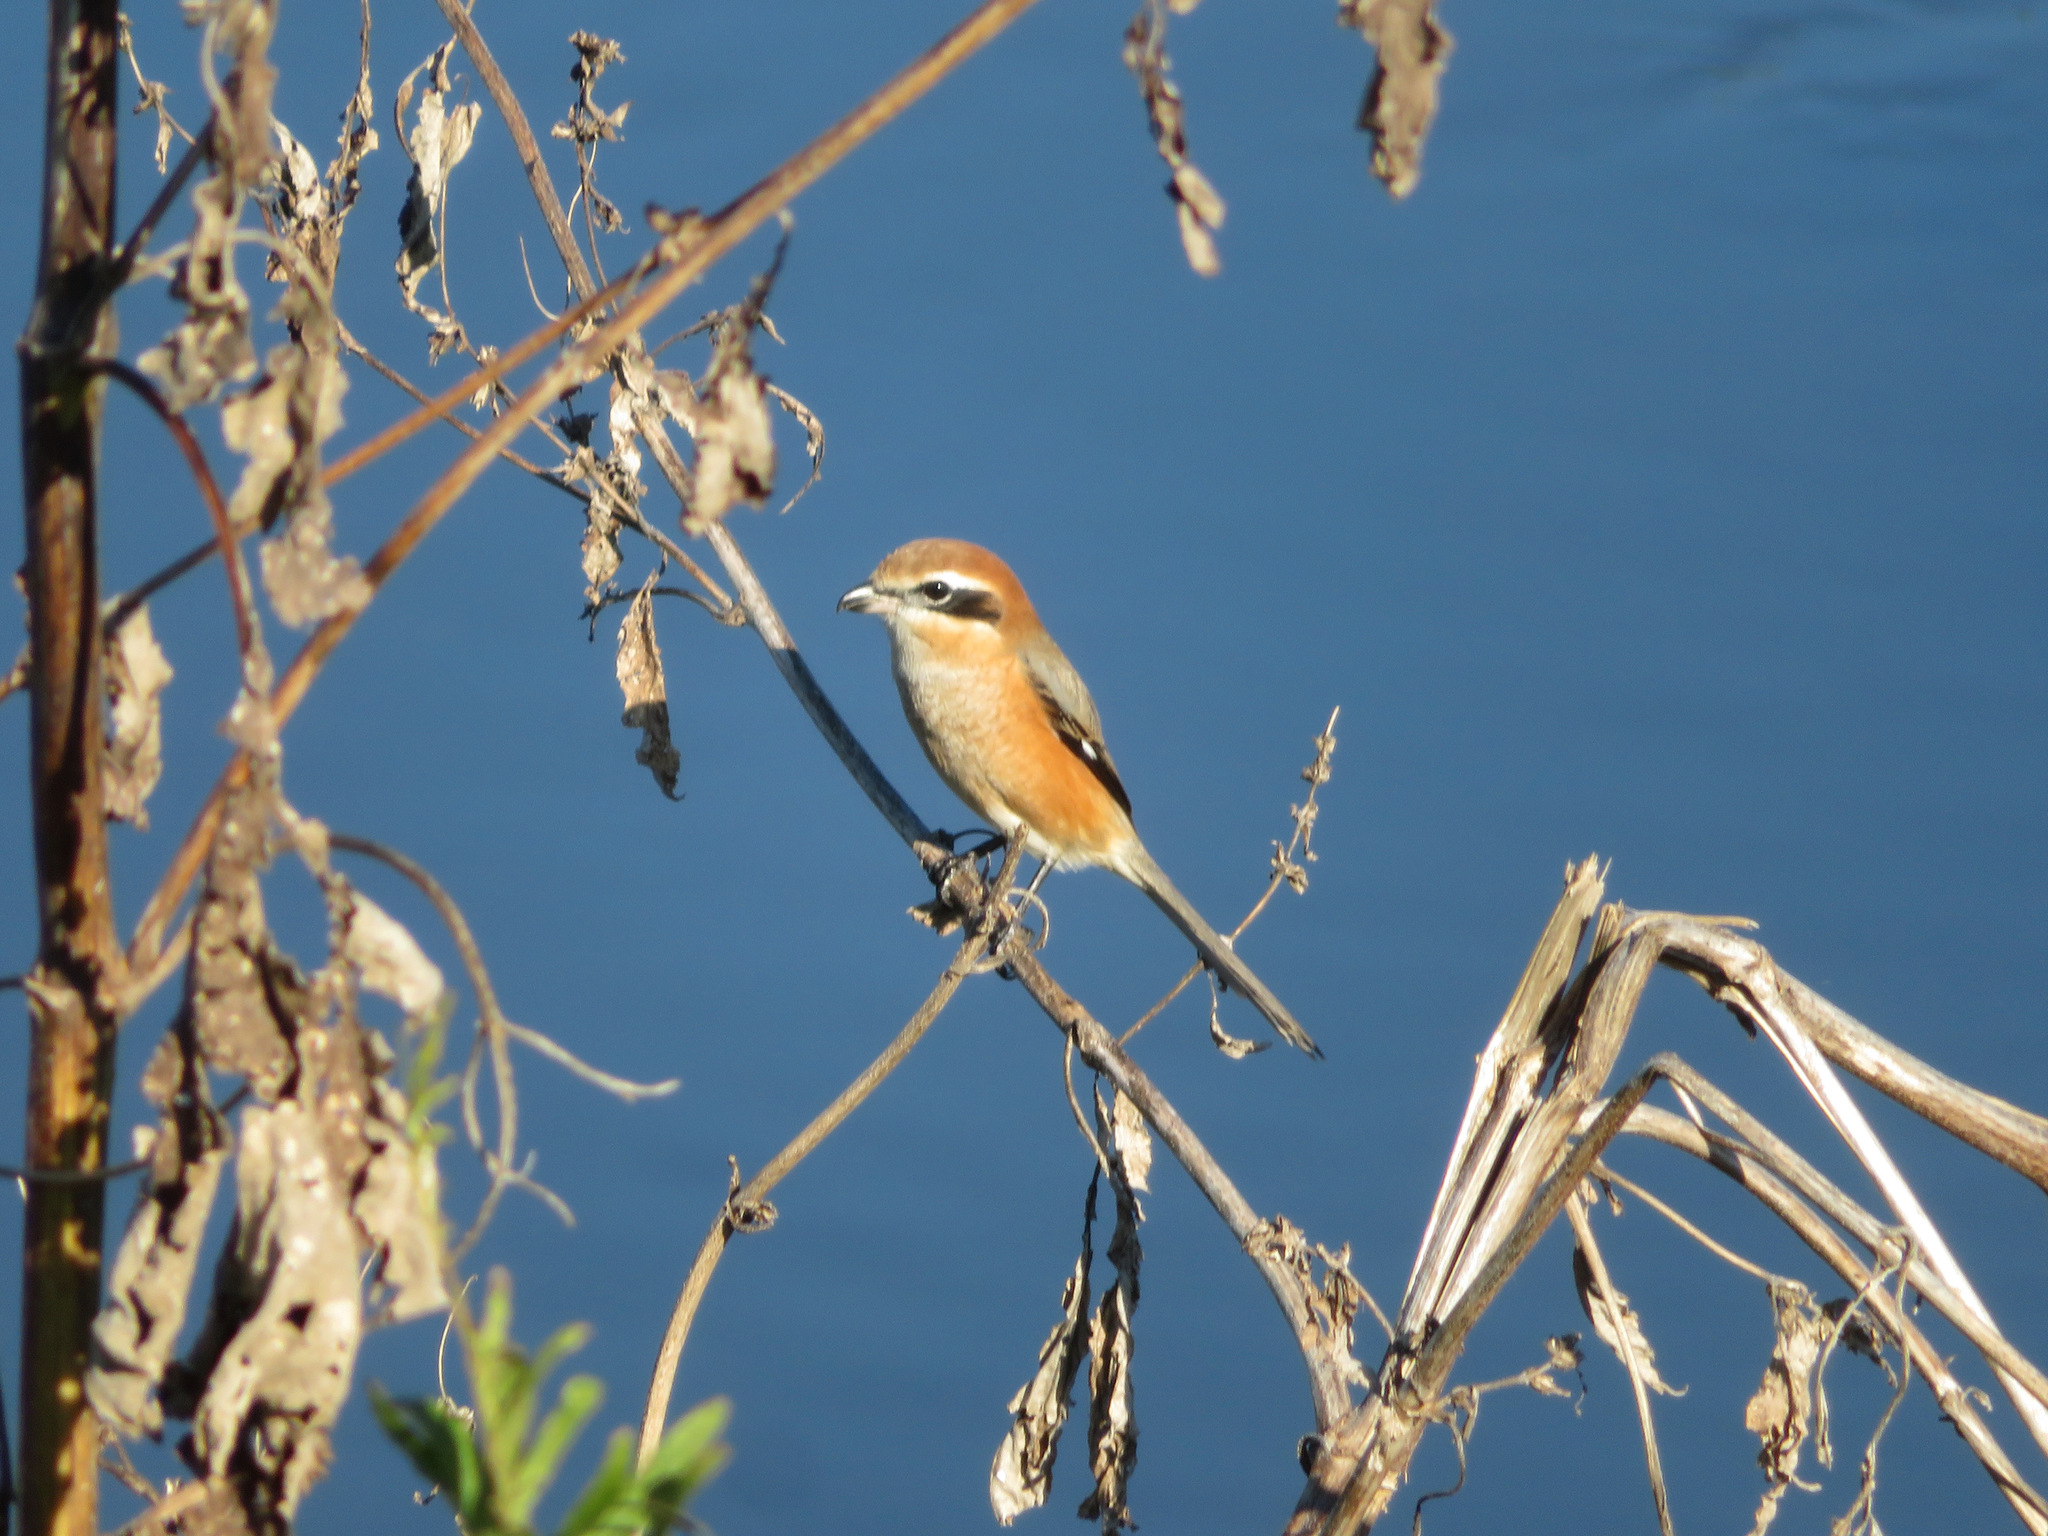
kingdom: Animalia
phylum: Chordata
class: Aves
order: Passeriformes
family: Laniidae
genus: Lanius
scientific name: Lanius bucephalus
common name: Bull-headed shrike
